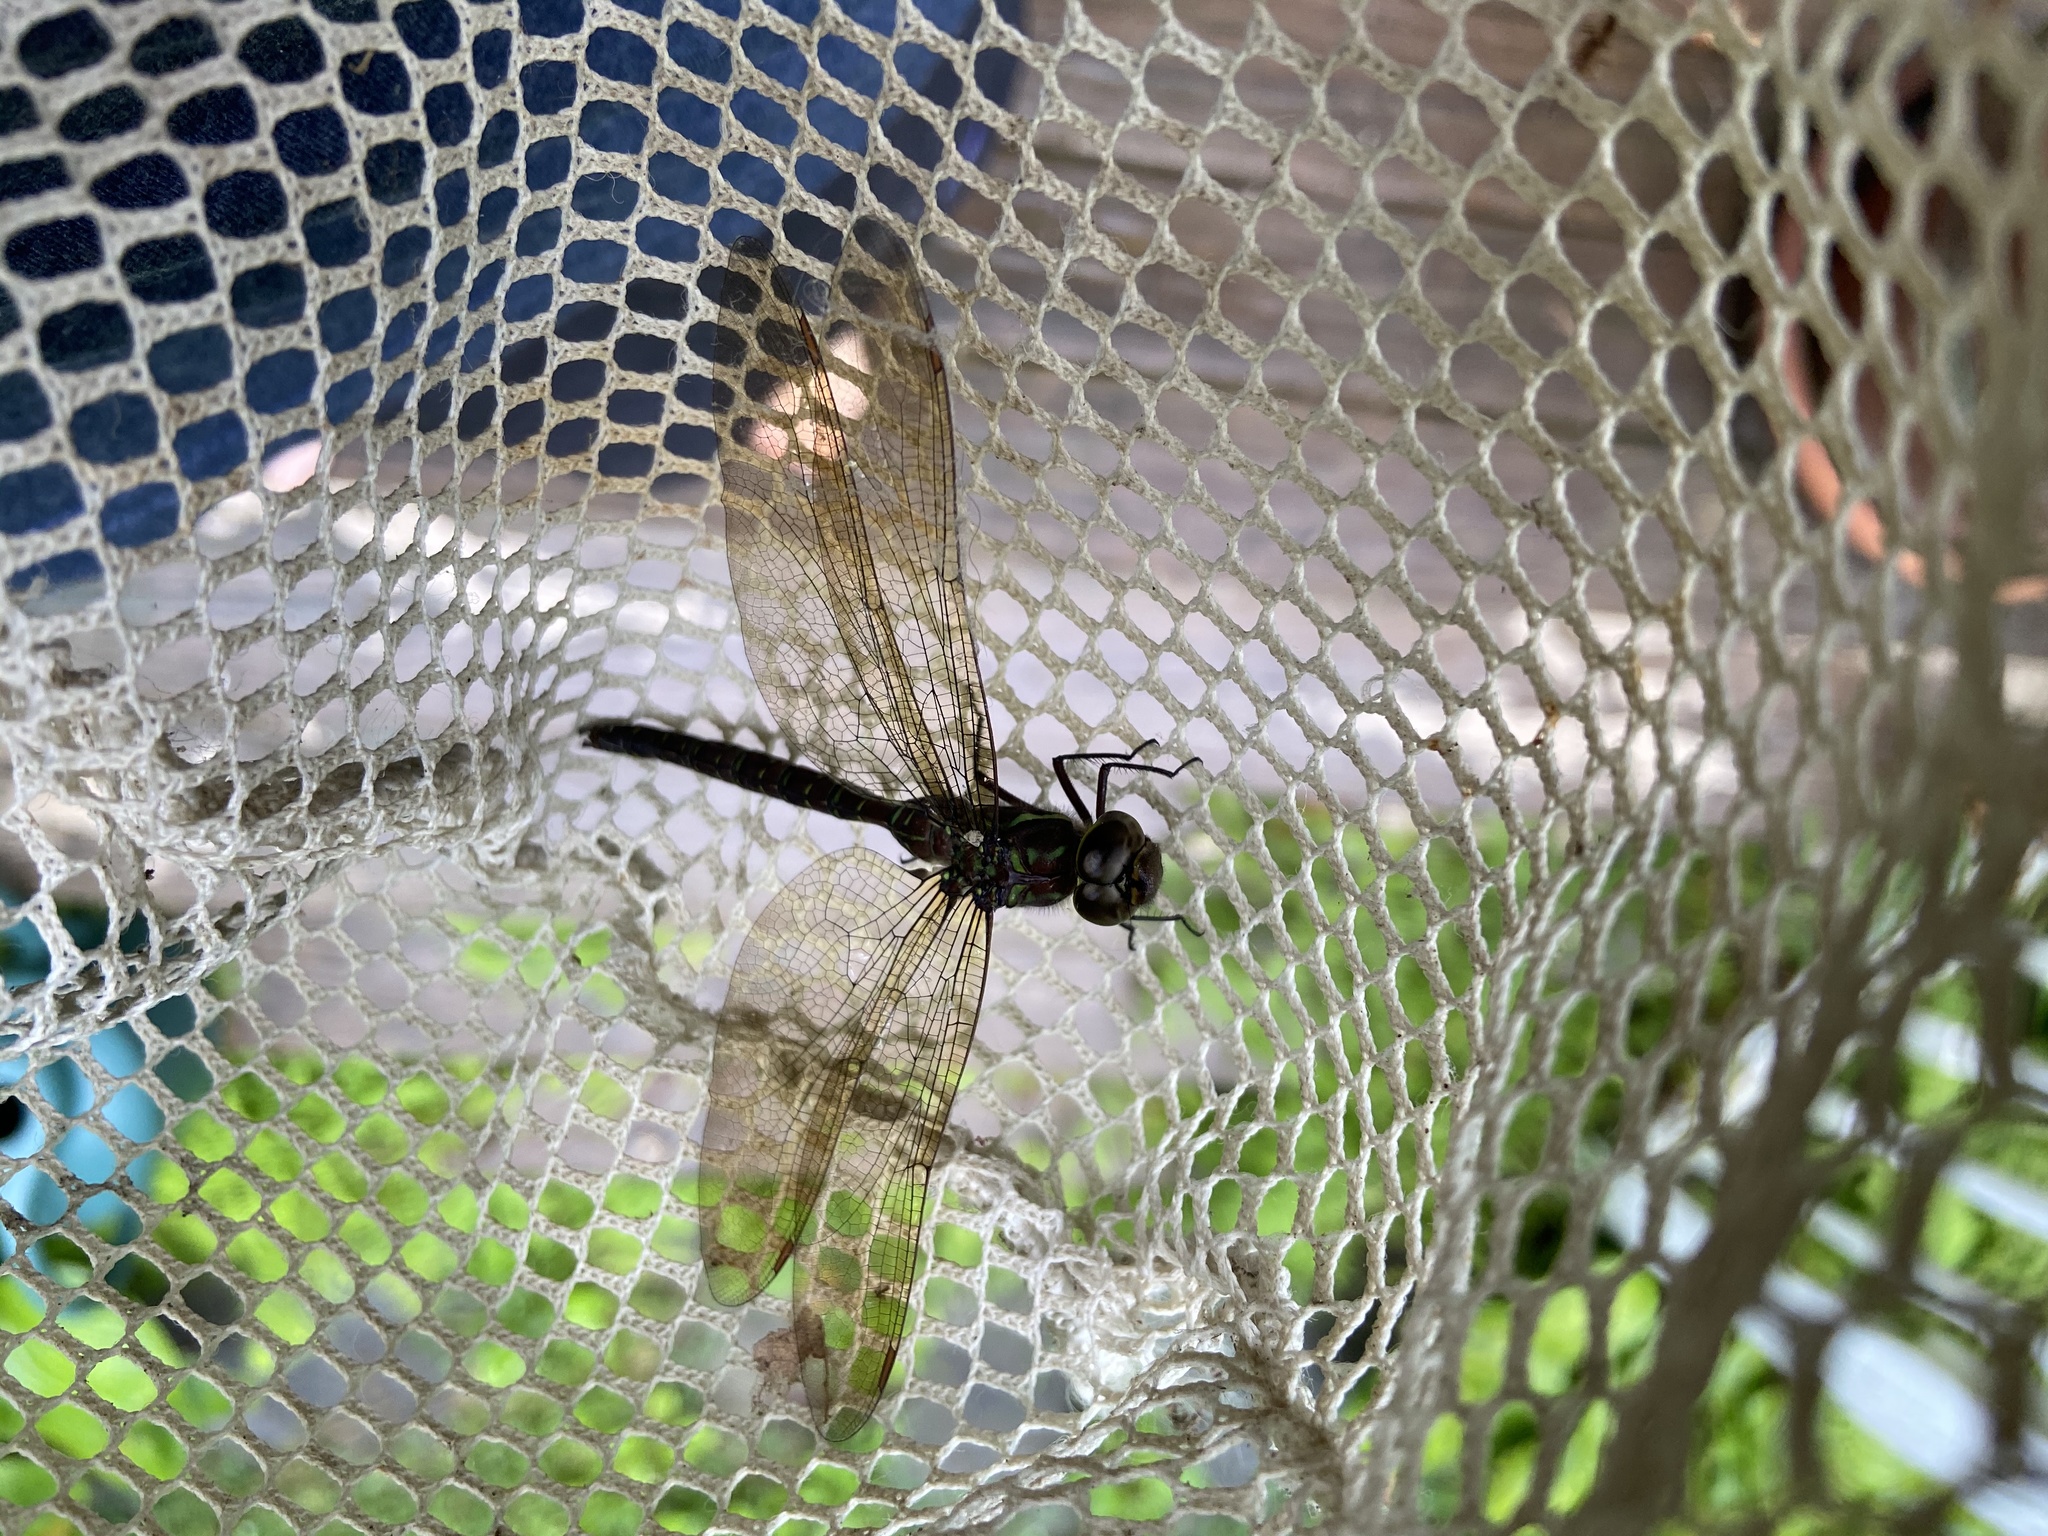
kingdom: Animalia
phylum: Arthropoda
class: Insecta
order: Odonata
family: Aeshnidae
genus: Aeshna
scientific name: Aeshna umbrosa
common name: Shadow darner
